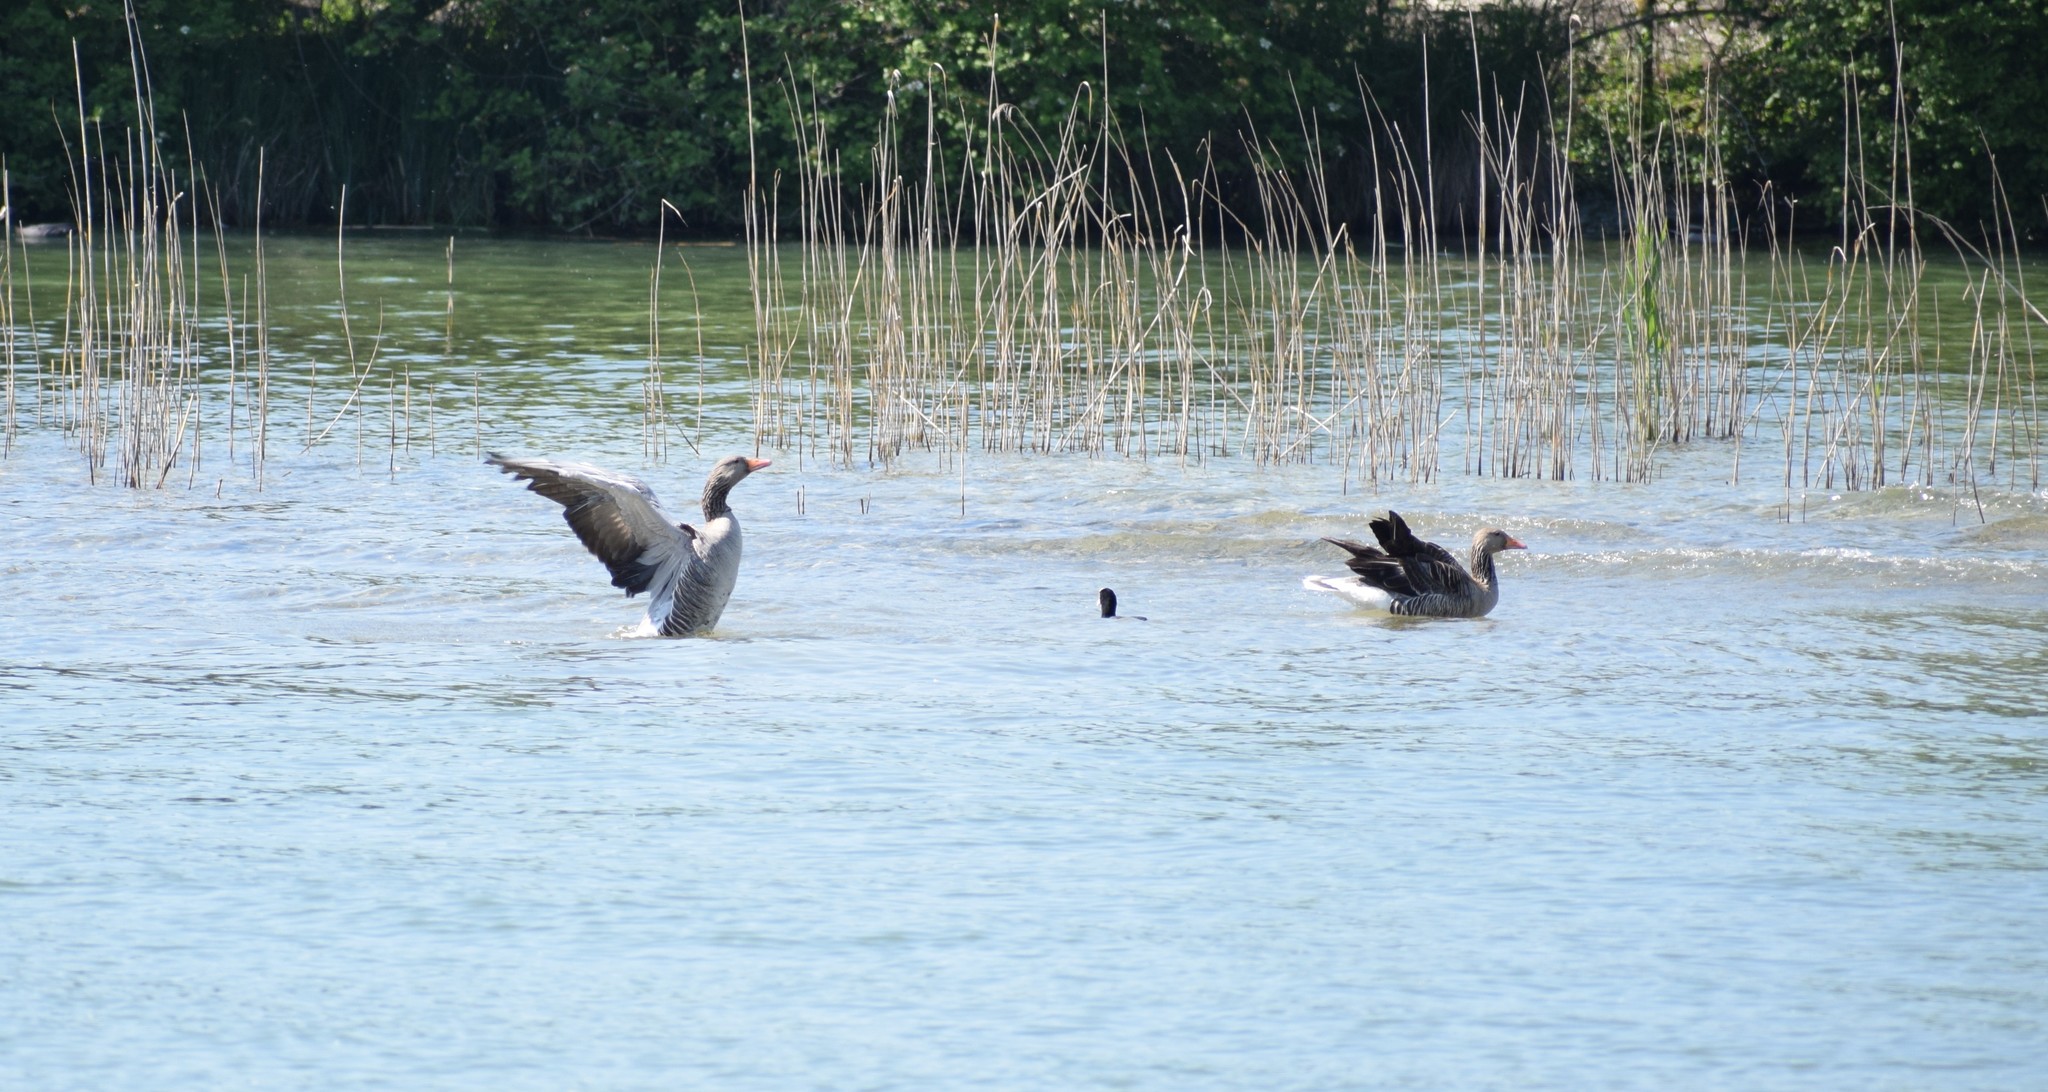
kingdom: Animalia
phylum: Chordata
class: Aves
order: Anseriformes
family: Anatidae
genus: Anser
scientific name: Anser anser
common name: Greylag goose
